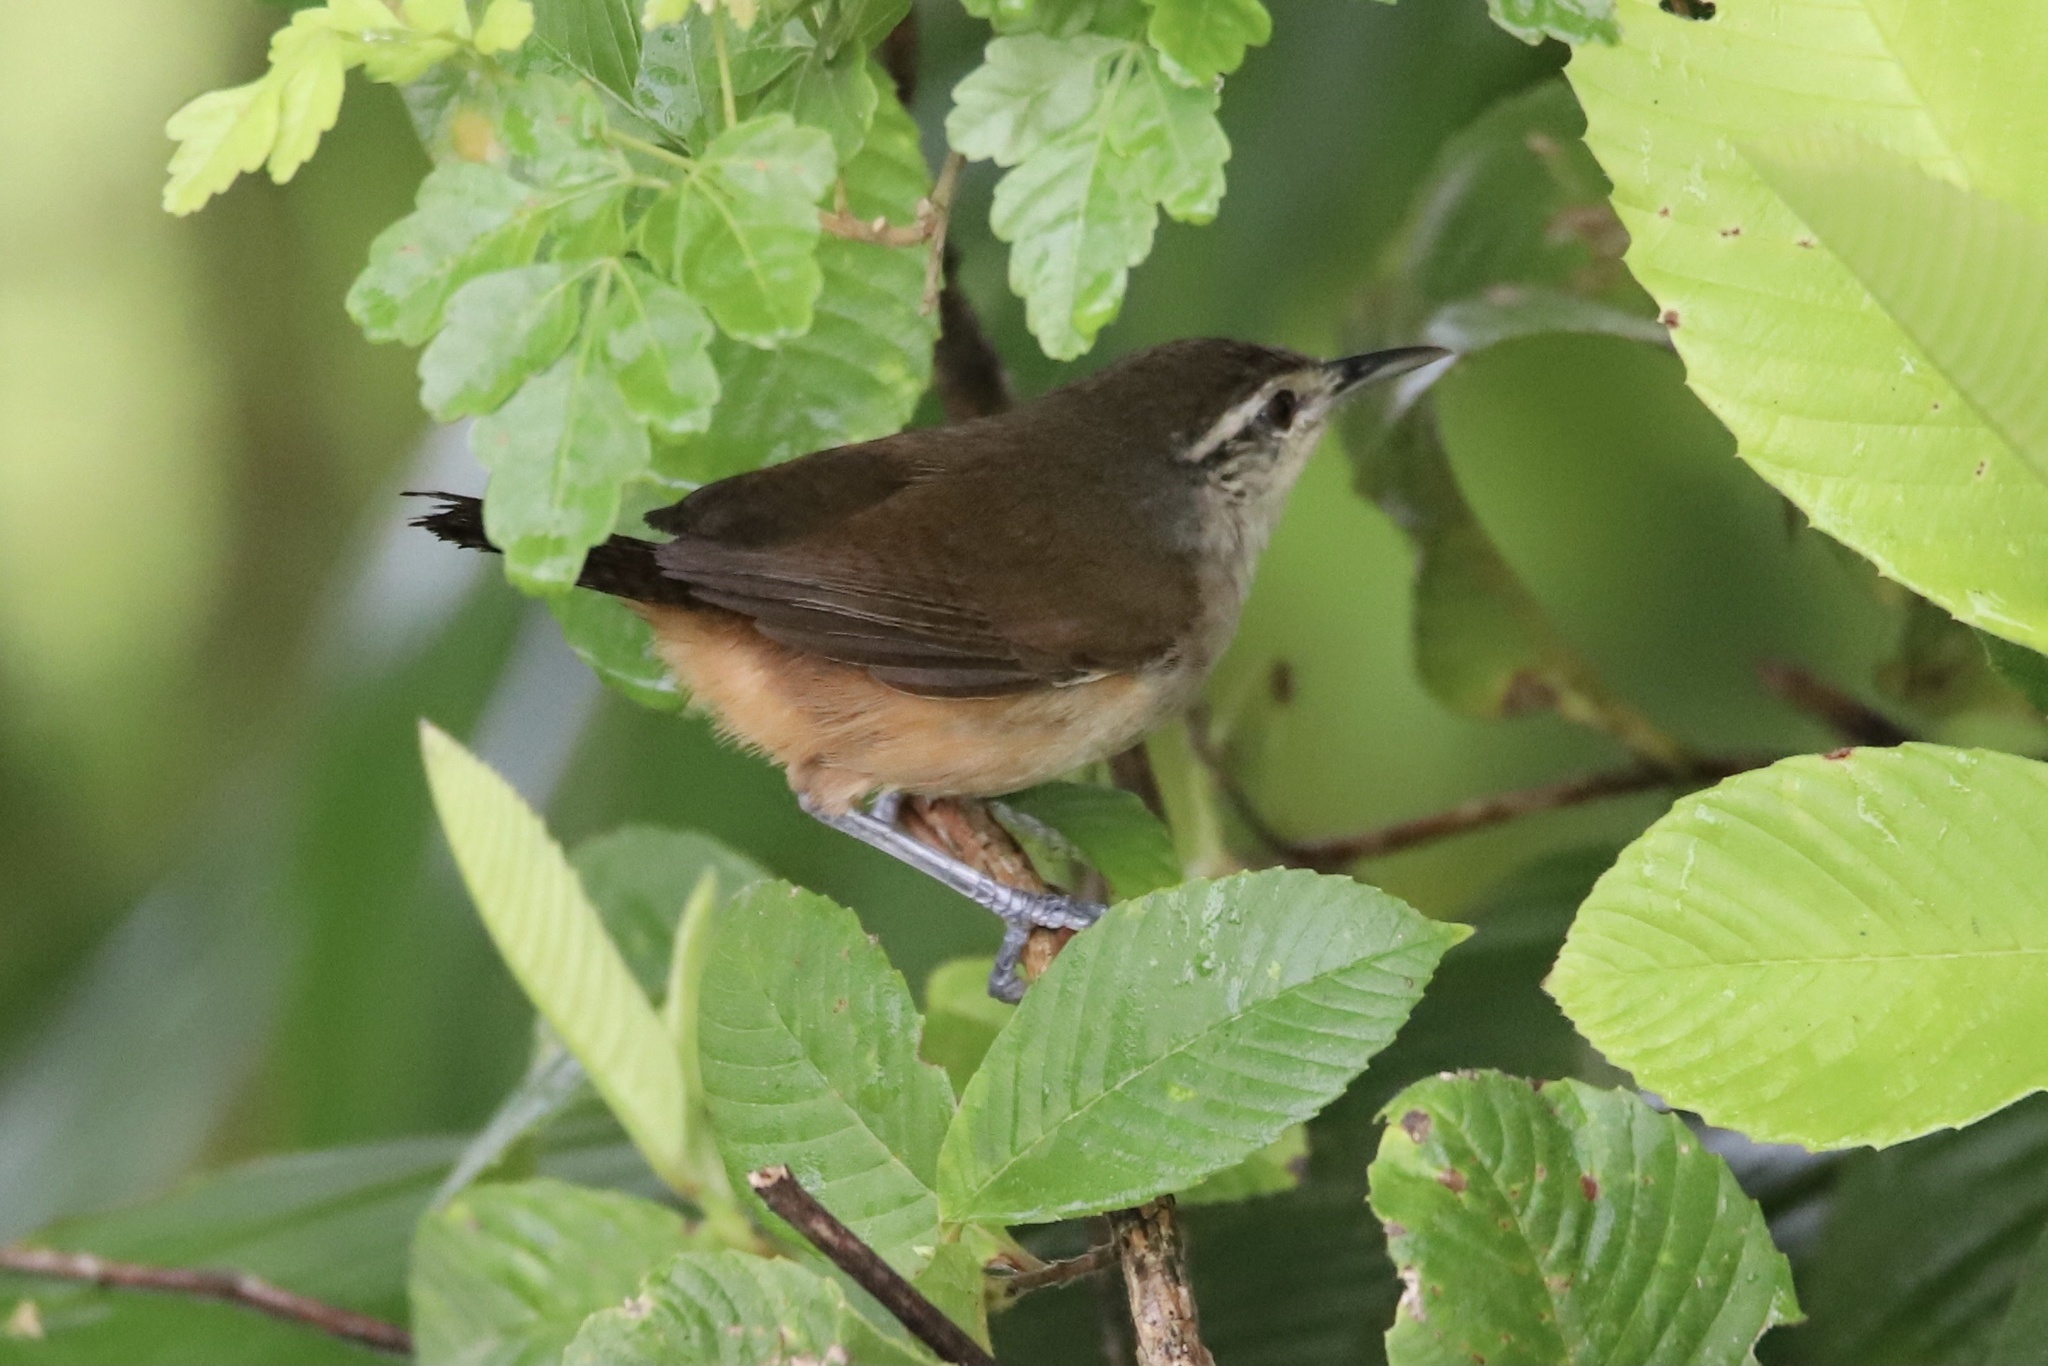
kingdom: Animalia
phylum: Chordata
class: Aves
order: Passeriformes
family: Troglodytidae
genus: Cantorchilus
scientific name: Cantorchilus modestus
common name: Cabanis's wren
